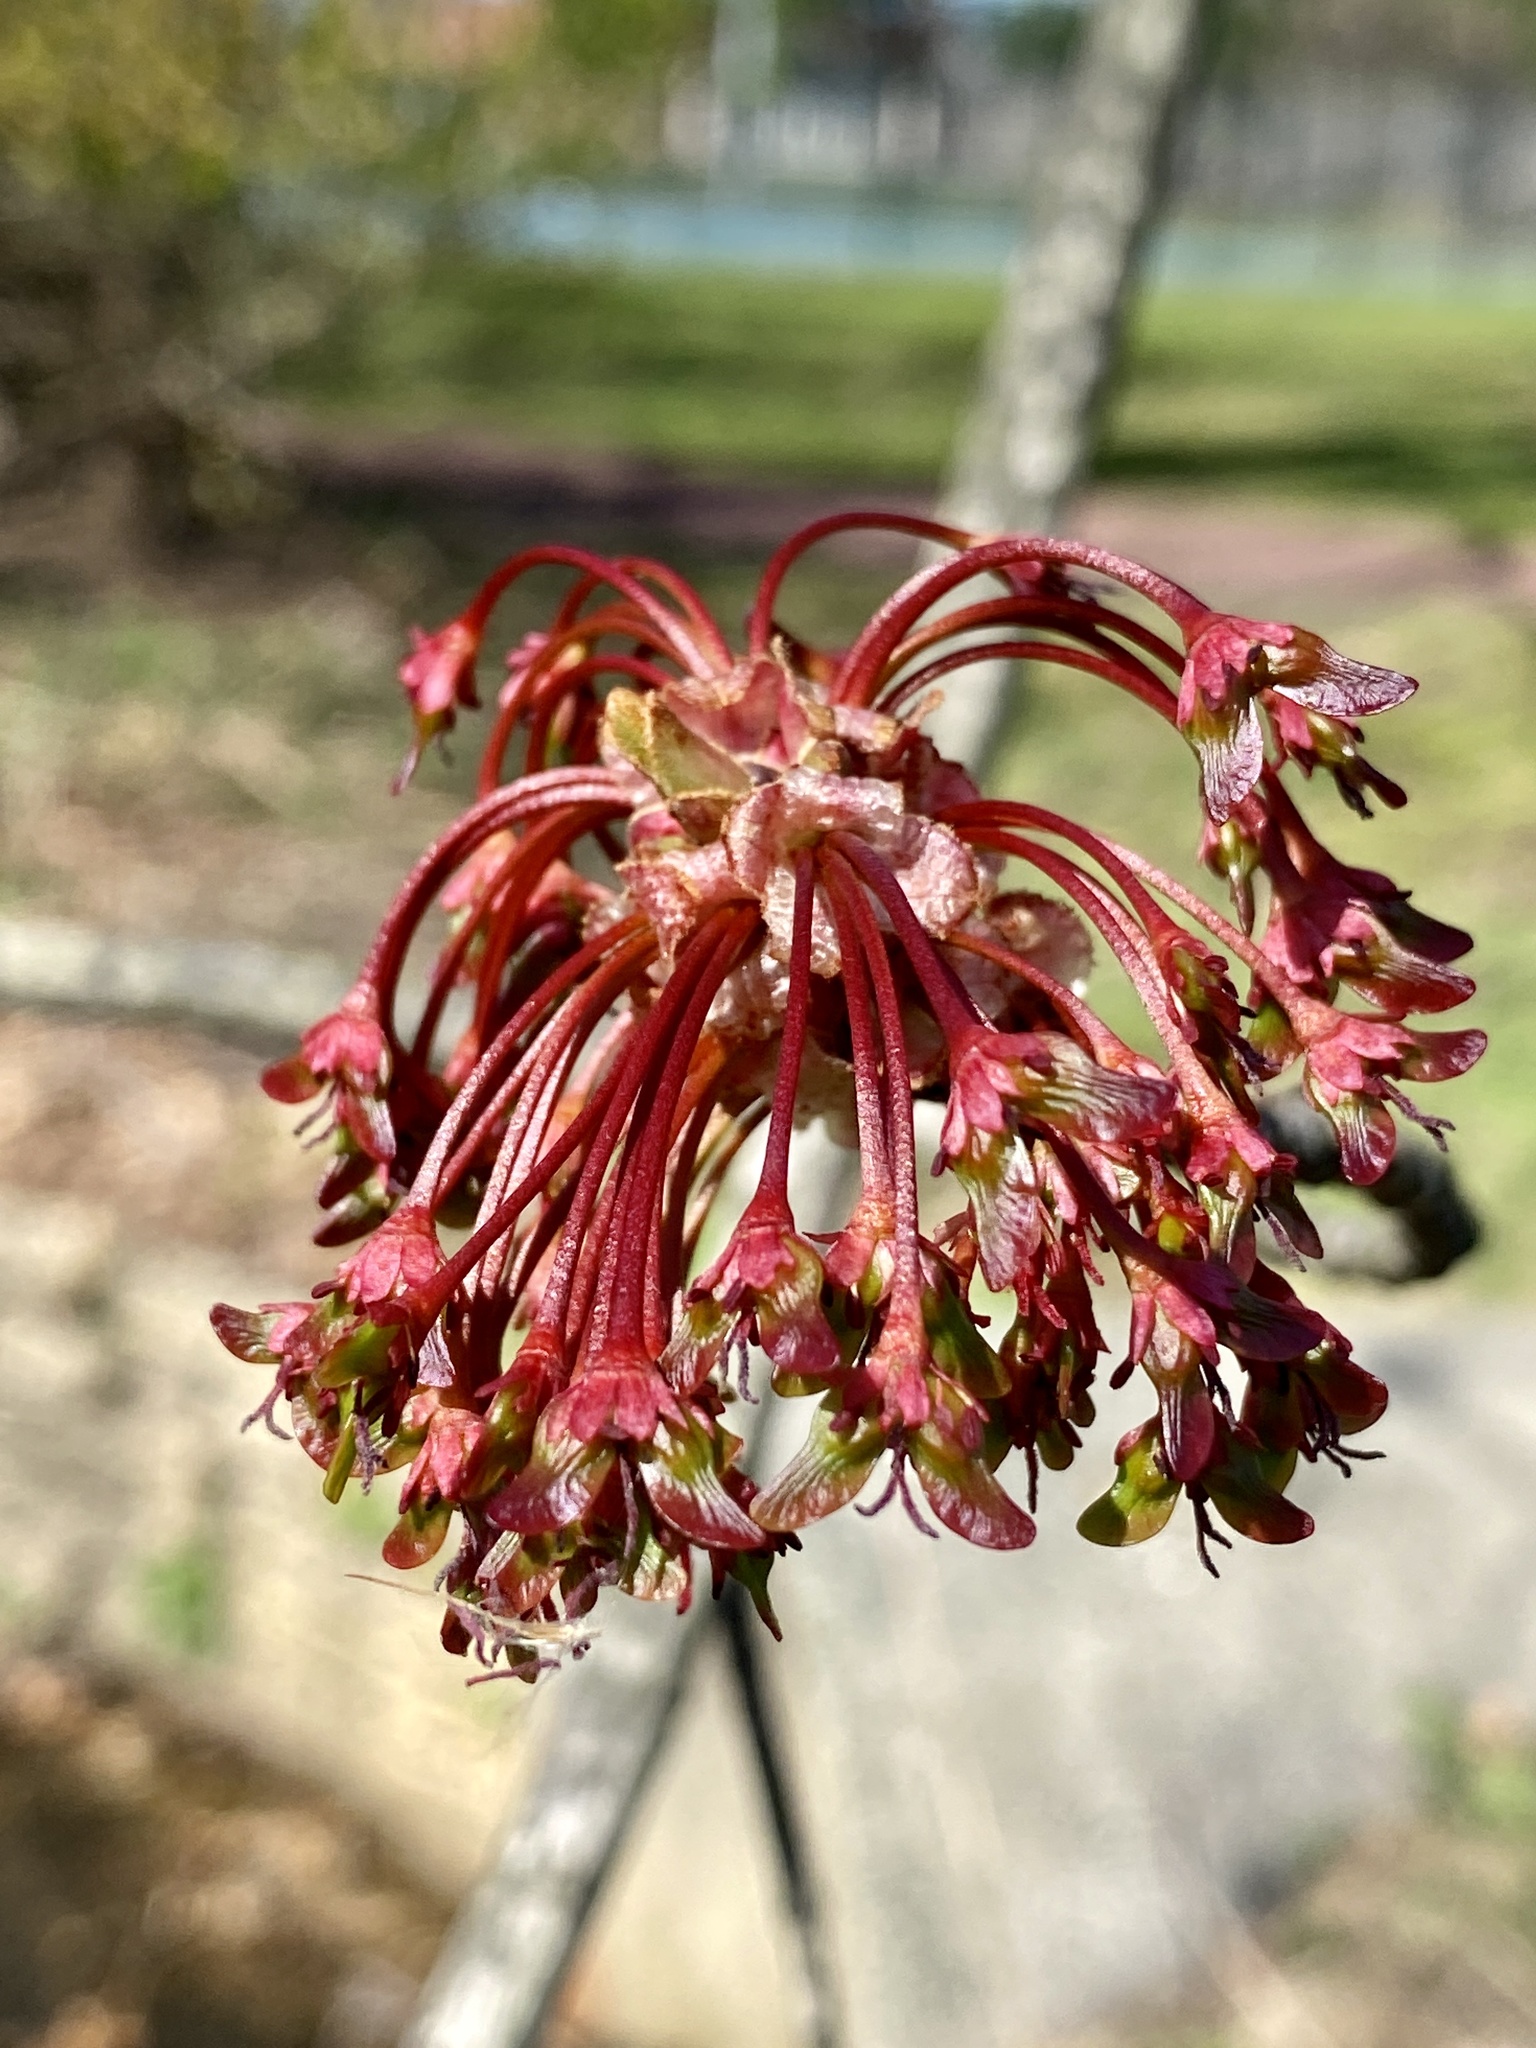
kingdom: Plantae
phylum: Tracheophyta
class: Magnoliopsida
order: Sapindales
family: Sapindaceae
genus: Acer
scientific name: Acer rubrum
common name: Red maple
